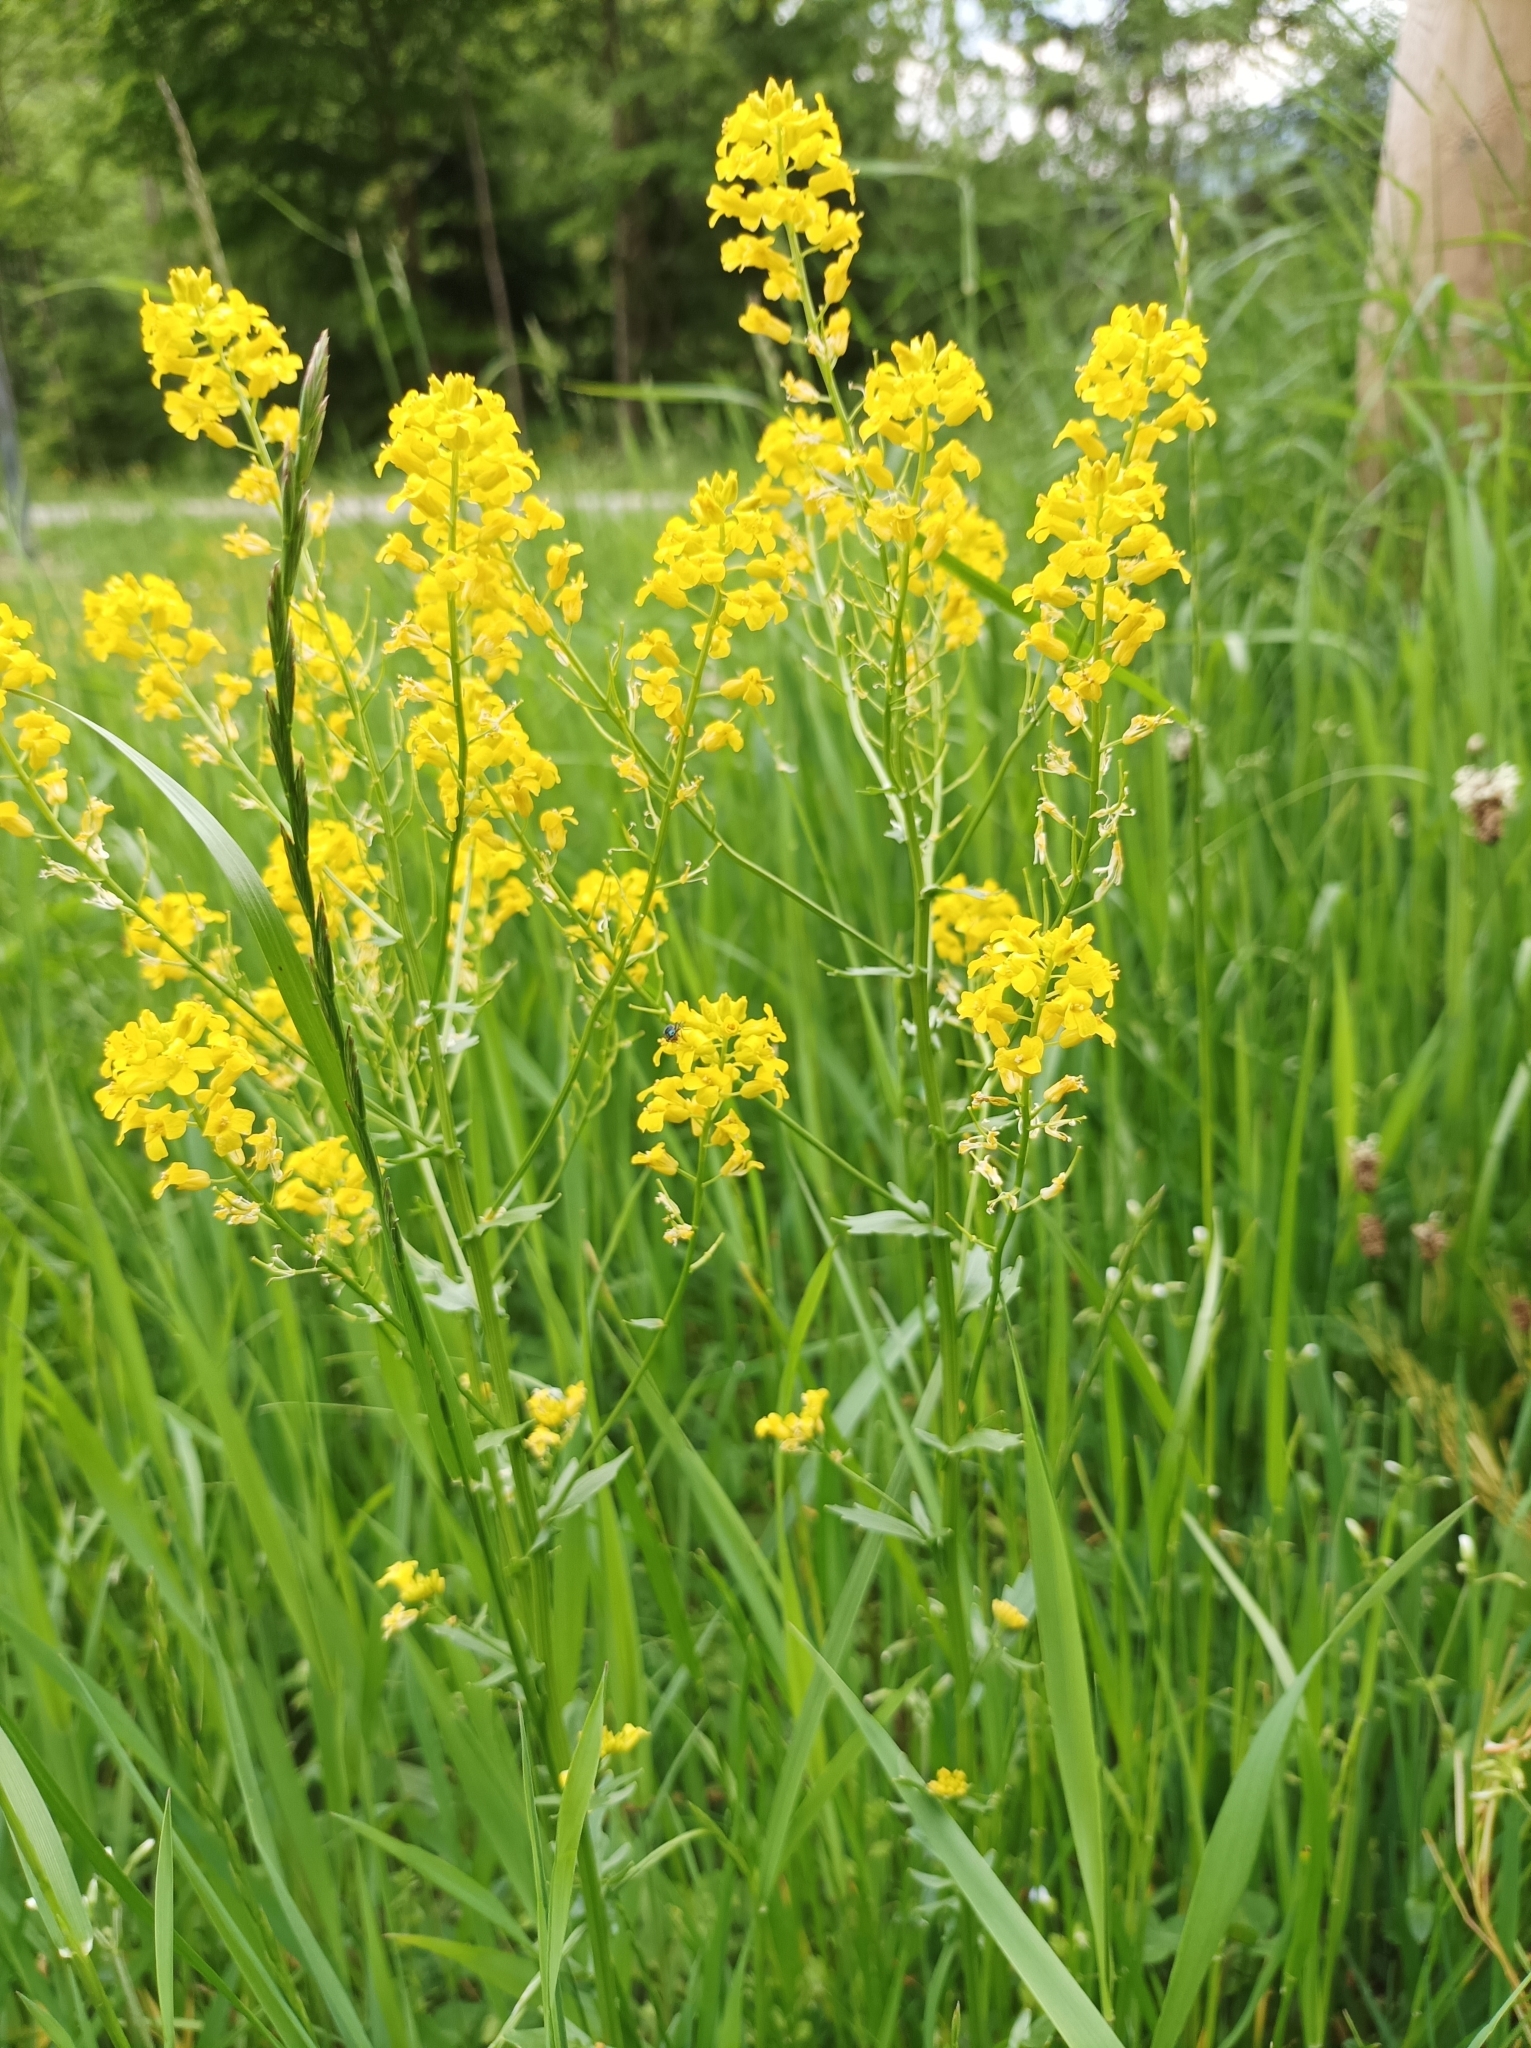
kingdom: Plantae
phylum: Tracheophyta
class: Magnoliopsida
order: Brassicales
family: Brassicaceae
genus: Barbarea
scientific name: Barbarea vulgaris
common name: Cressy-greens
